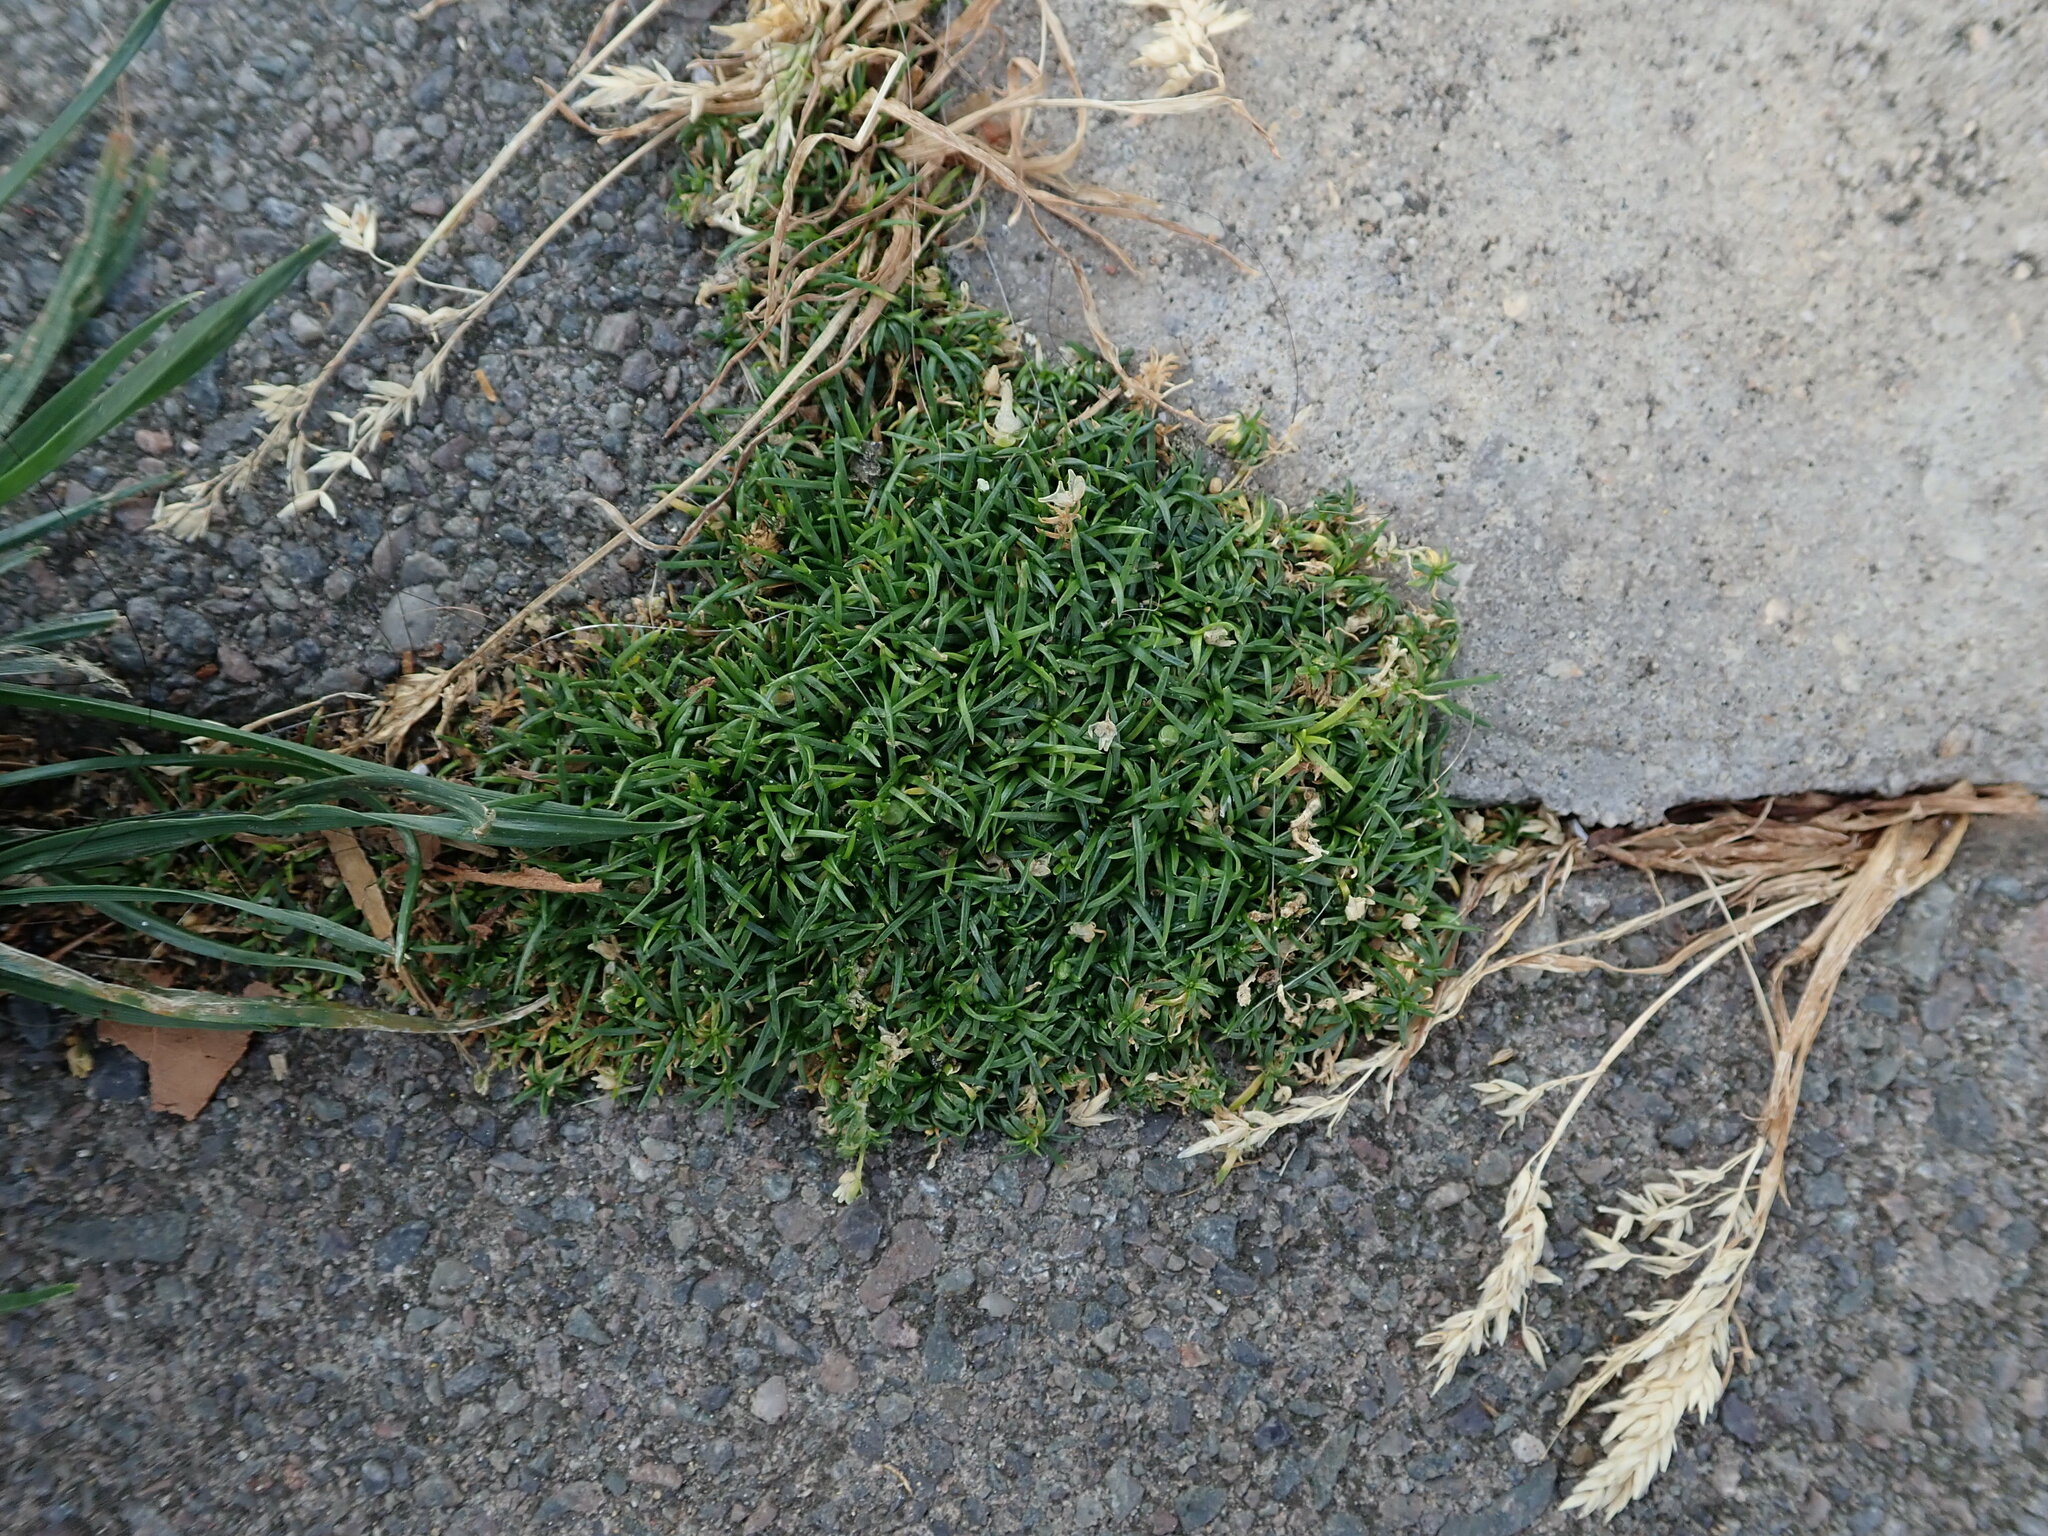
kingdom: Plantae
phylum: Tracheophyta
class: Magnoliopsida
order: Caryophyllales
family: Caryophyllaceae
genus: Sagina
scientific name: Sagina procumbens
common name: Procumbent pearlwort
